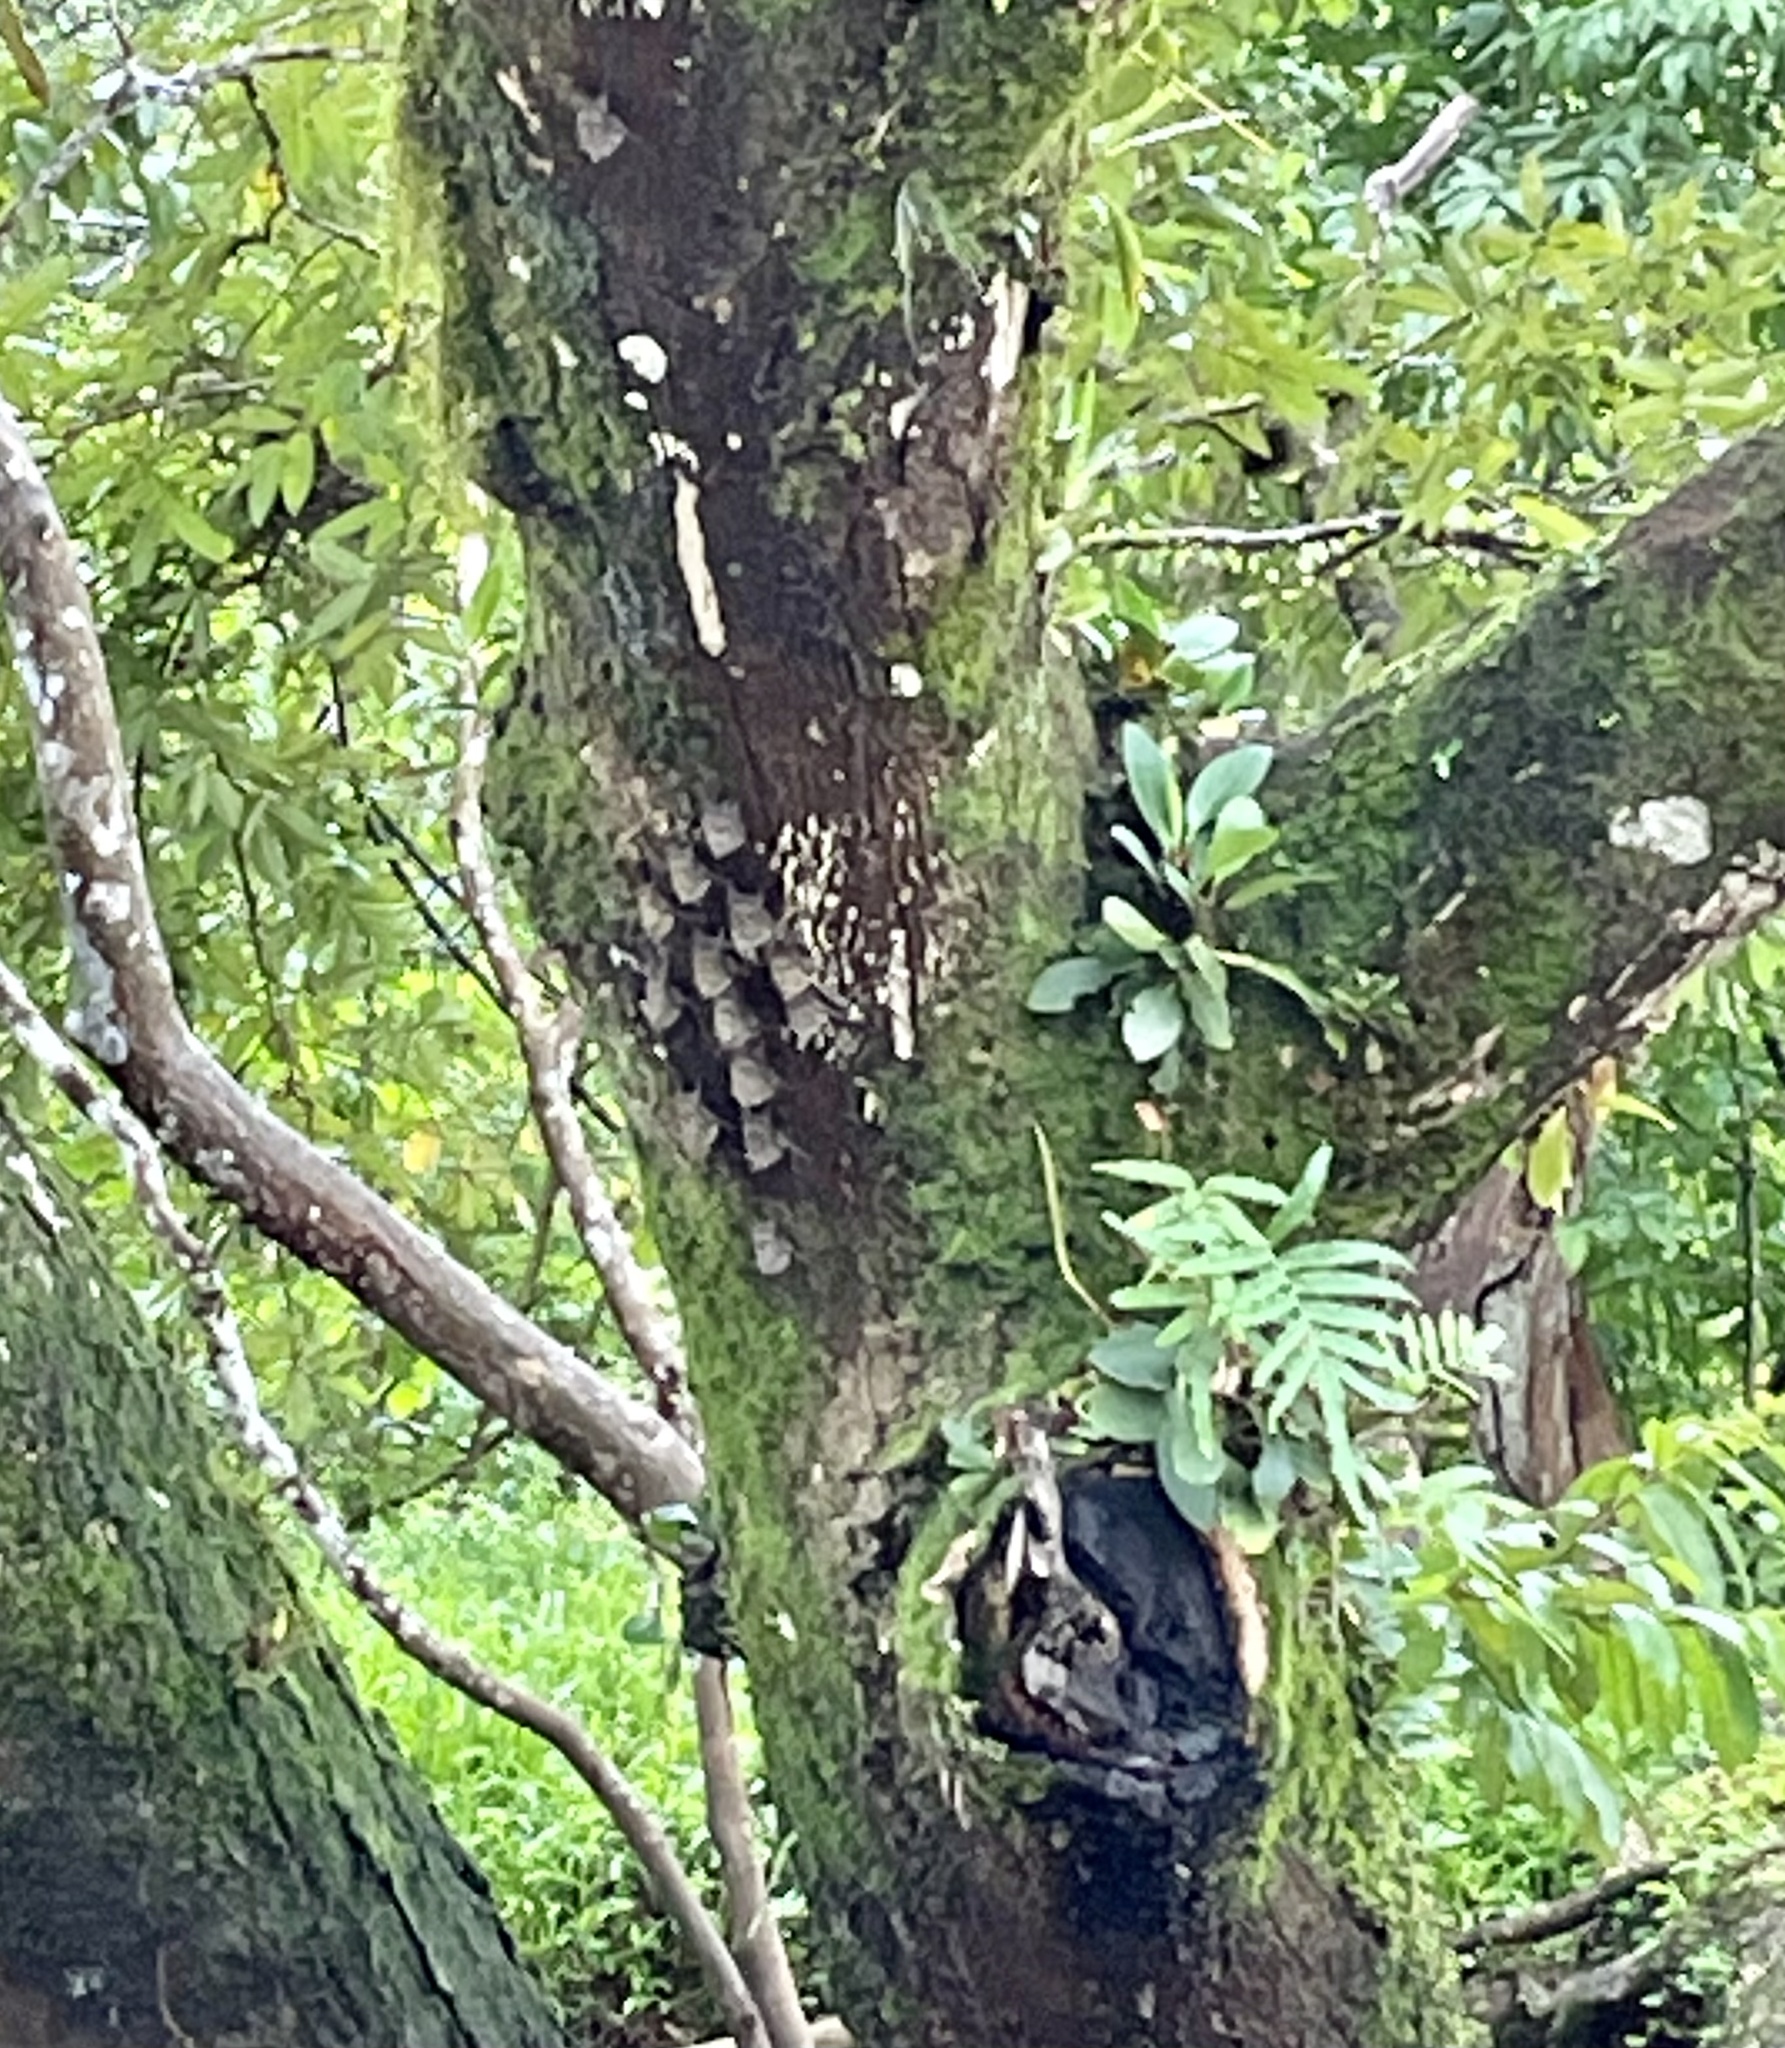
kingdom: Animalia
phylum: Chordata
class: Mammalia
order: Chiroptera
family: Emballonuridae
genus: Rhynchonycteris
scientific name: Rhynchonycteris naso
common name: Proboscis bat
